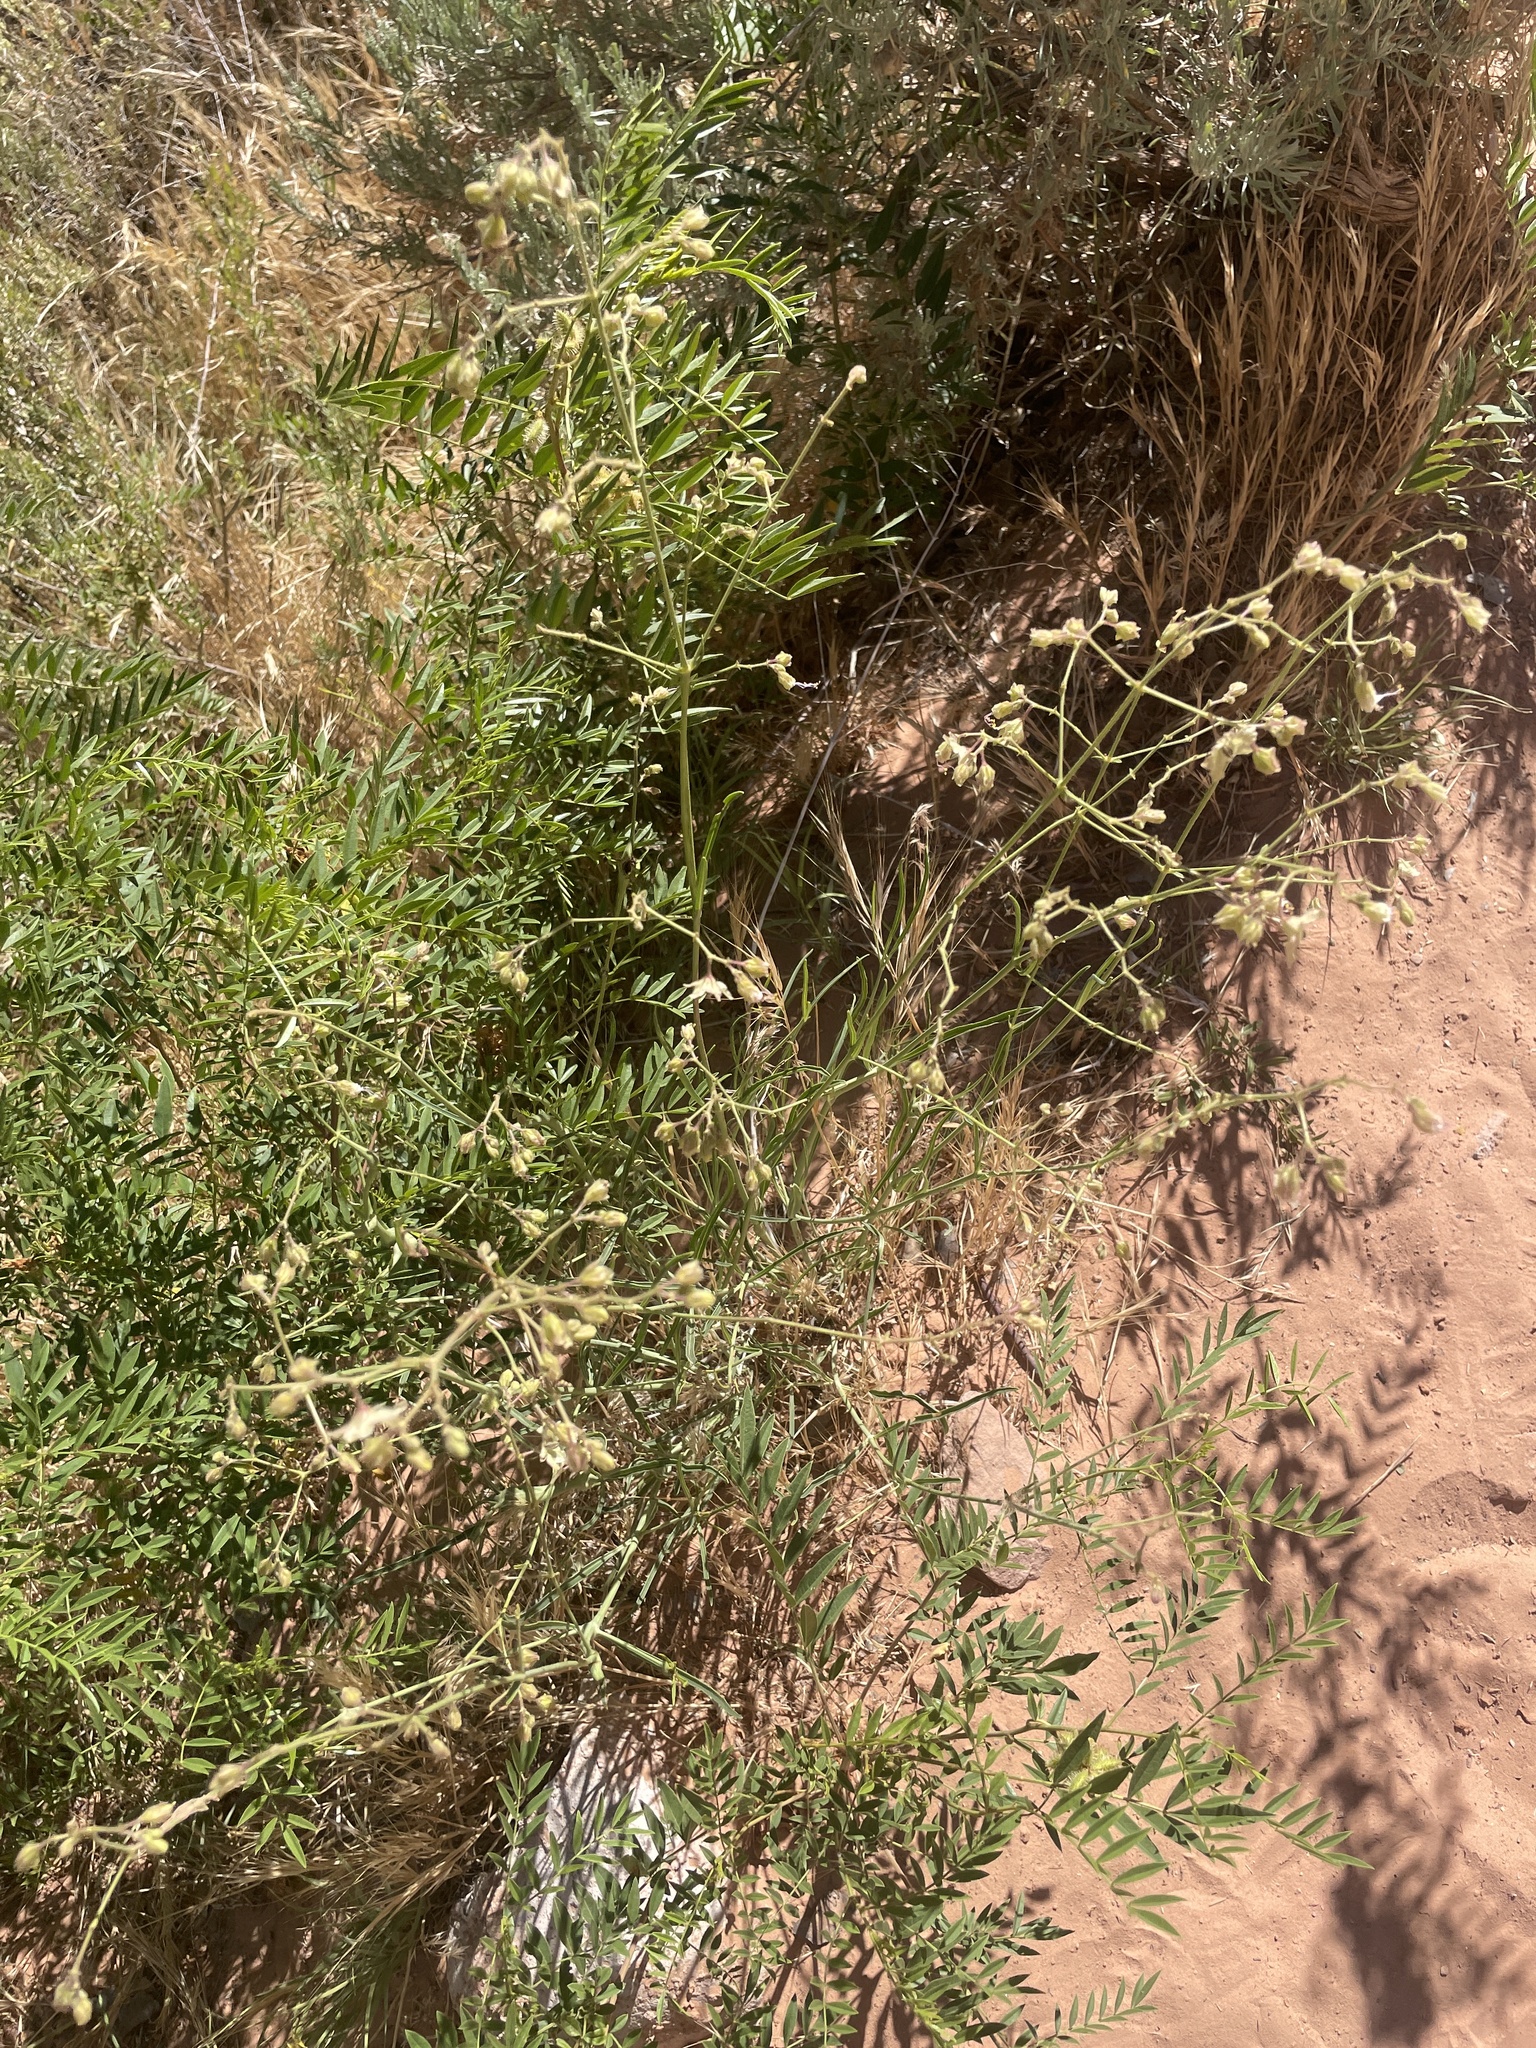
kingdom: Plantae
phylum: Tracheophyta
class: Magnoliopsida
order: Caryophyllales
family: Nyctaginaceae
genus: Mirabilis
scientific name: Mirabilis linearis
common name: Linear-leaved four-o'clock
